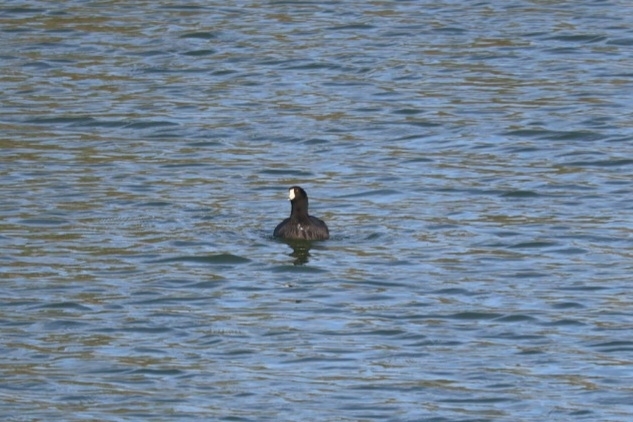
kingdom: Animalia
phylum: Chordata
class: Aves
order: Gruiformes
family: Rallidae
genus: Fulica
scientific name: Fulica americana
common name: American coot
